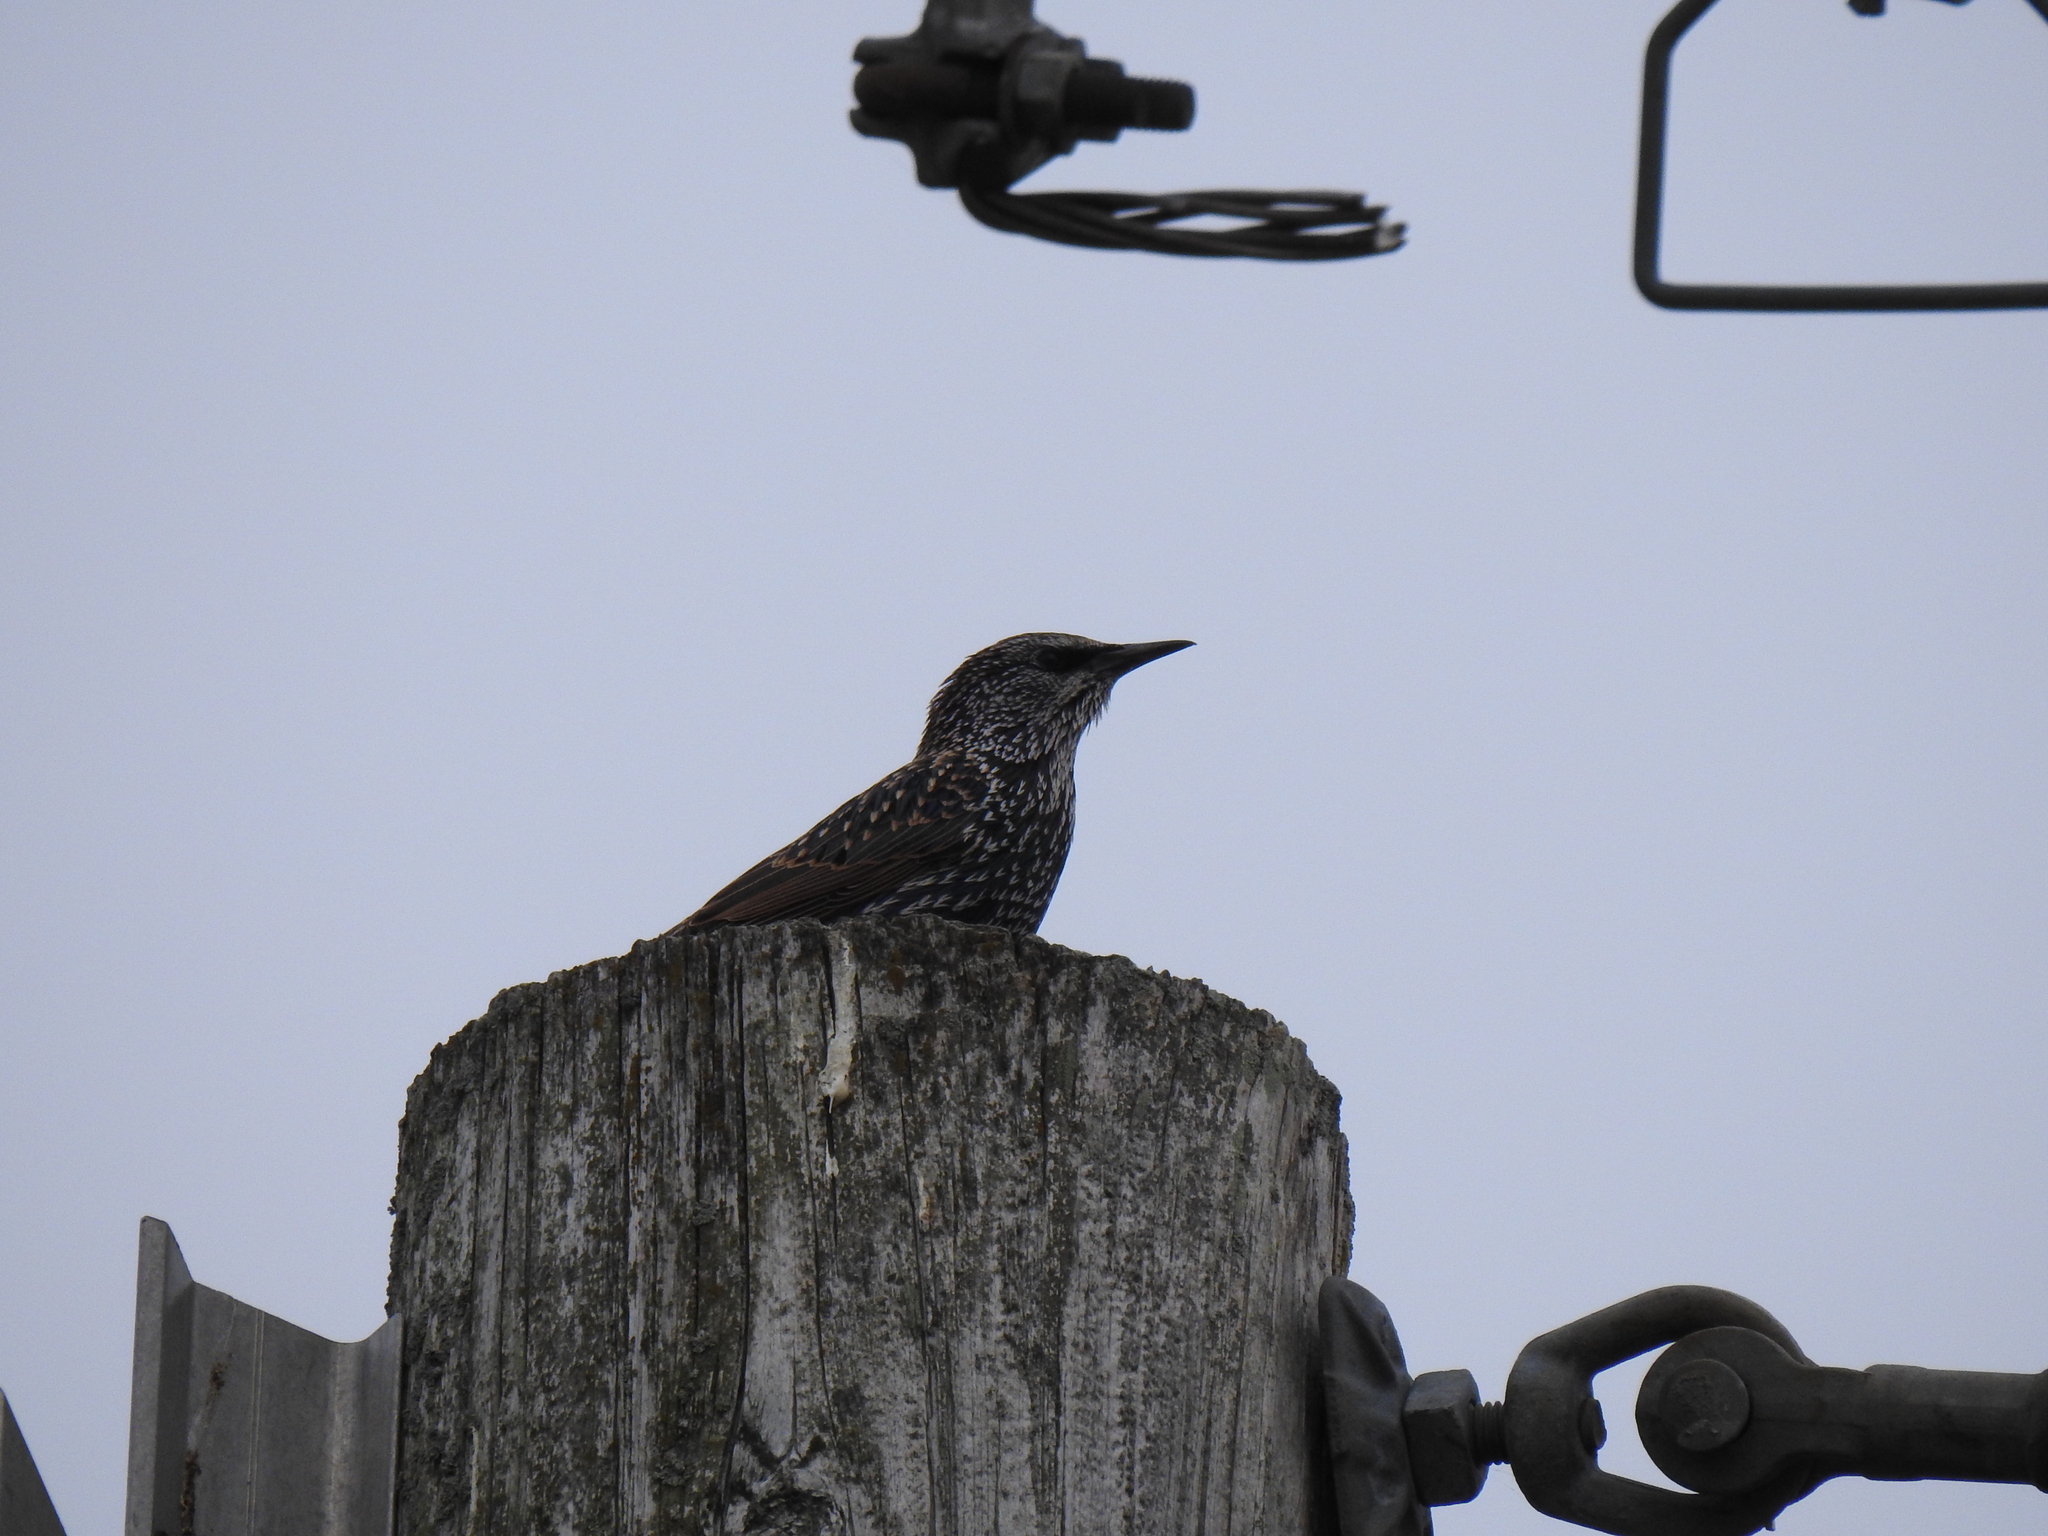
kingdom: Animalia
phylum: Chordata
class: Aves
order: Passeriformes
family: Sturnidae
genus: Sturnus
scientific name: Sturnus vulgaris
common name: Common starling
